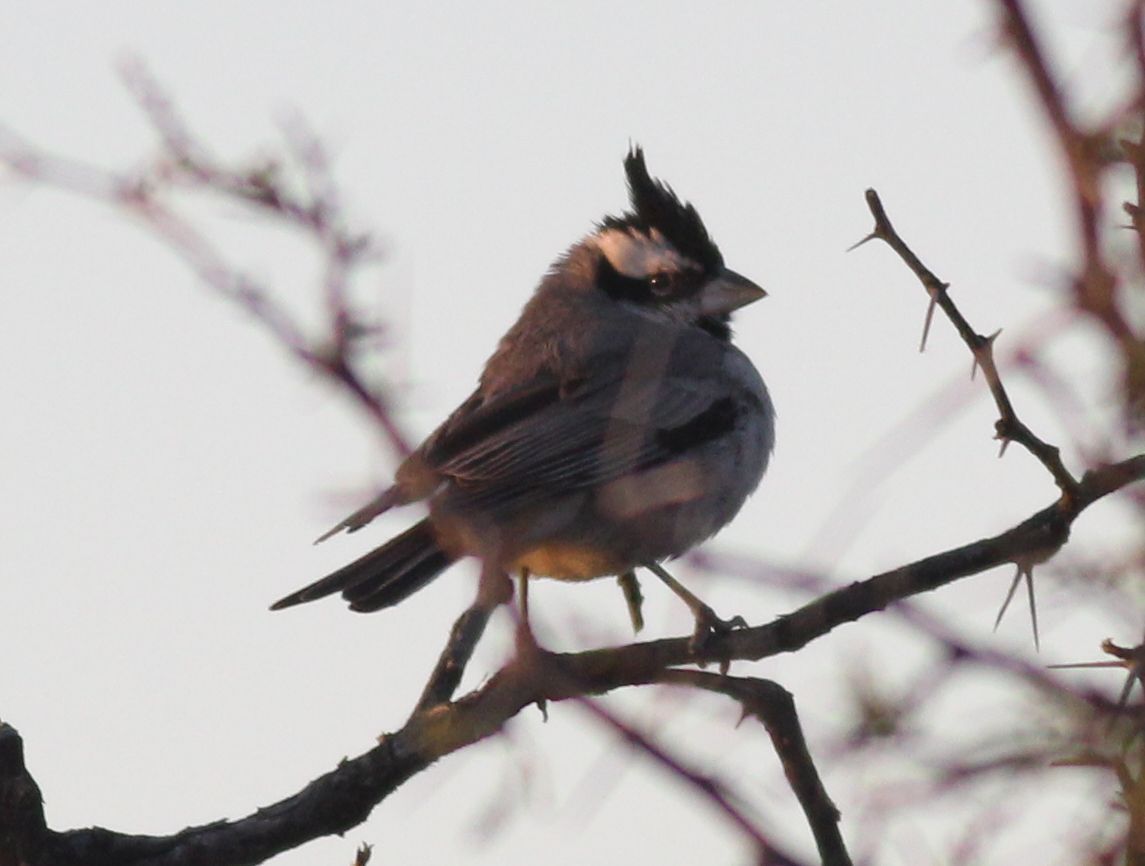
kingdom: Animalia
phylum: Chordata
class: Aves
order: Passeriformes
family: Thraupidae
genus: Lophospingus
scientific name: Lophospingus pusillus
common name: Black-crested finch
